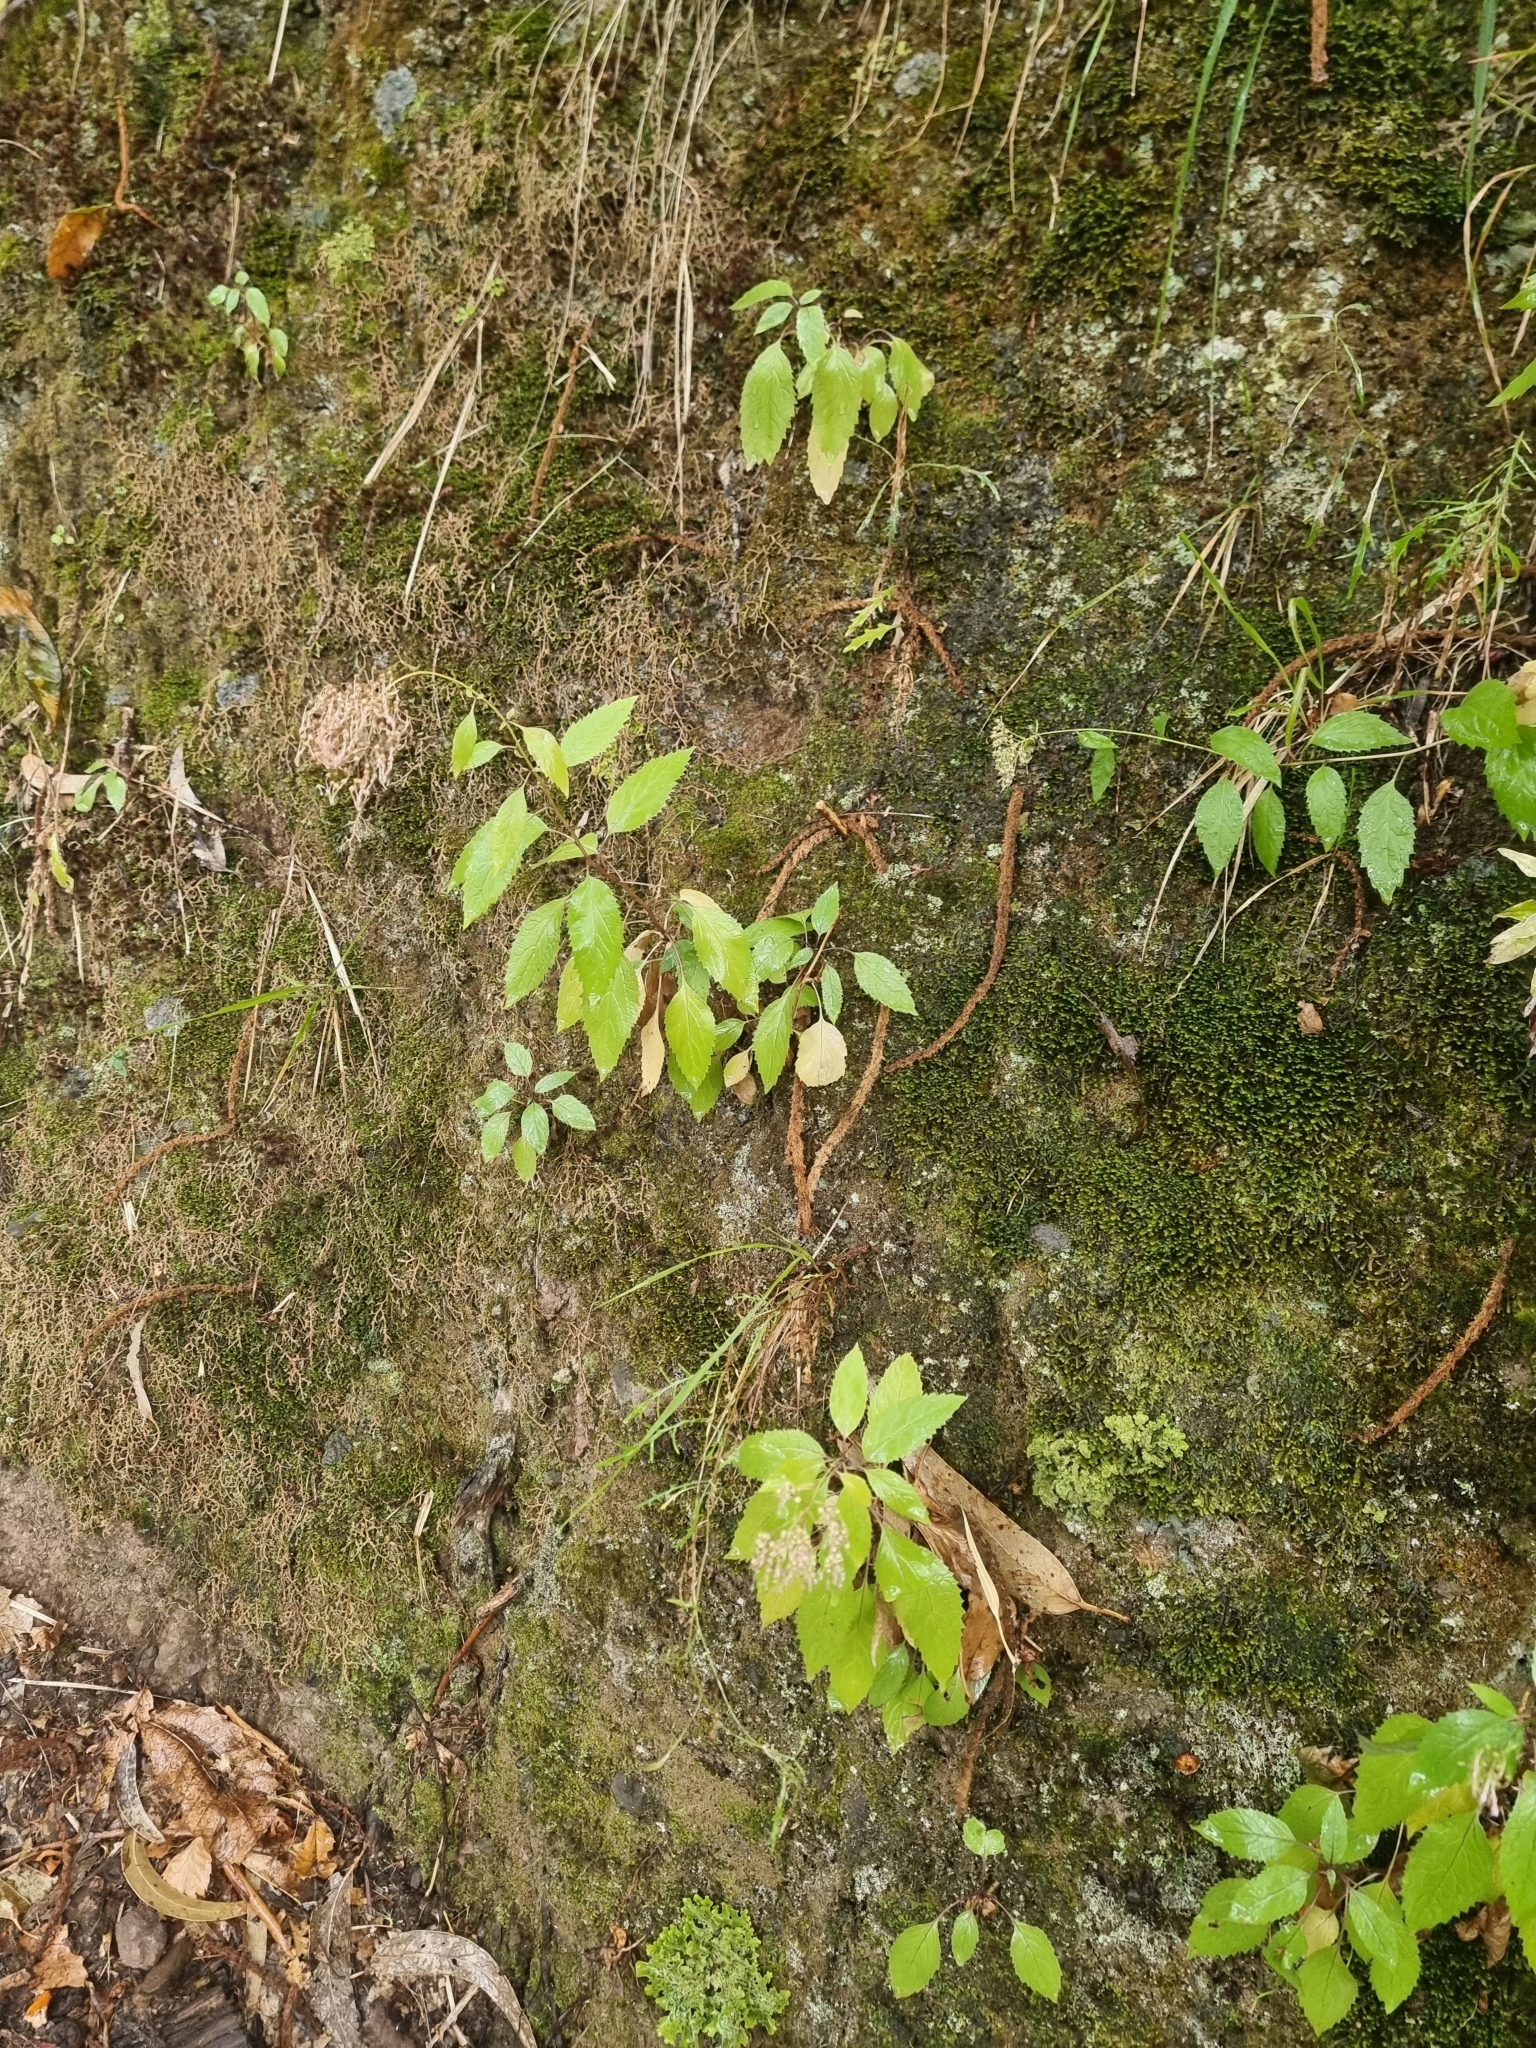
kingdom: Plantae
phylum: Tracheophyta
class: Magnoliopsida
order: Asterales
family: Campanulaceae
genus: Trachelium
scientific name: Trachelium caeruleum
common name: Throatwort
